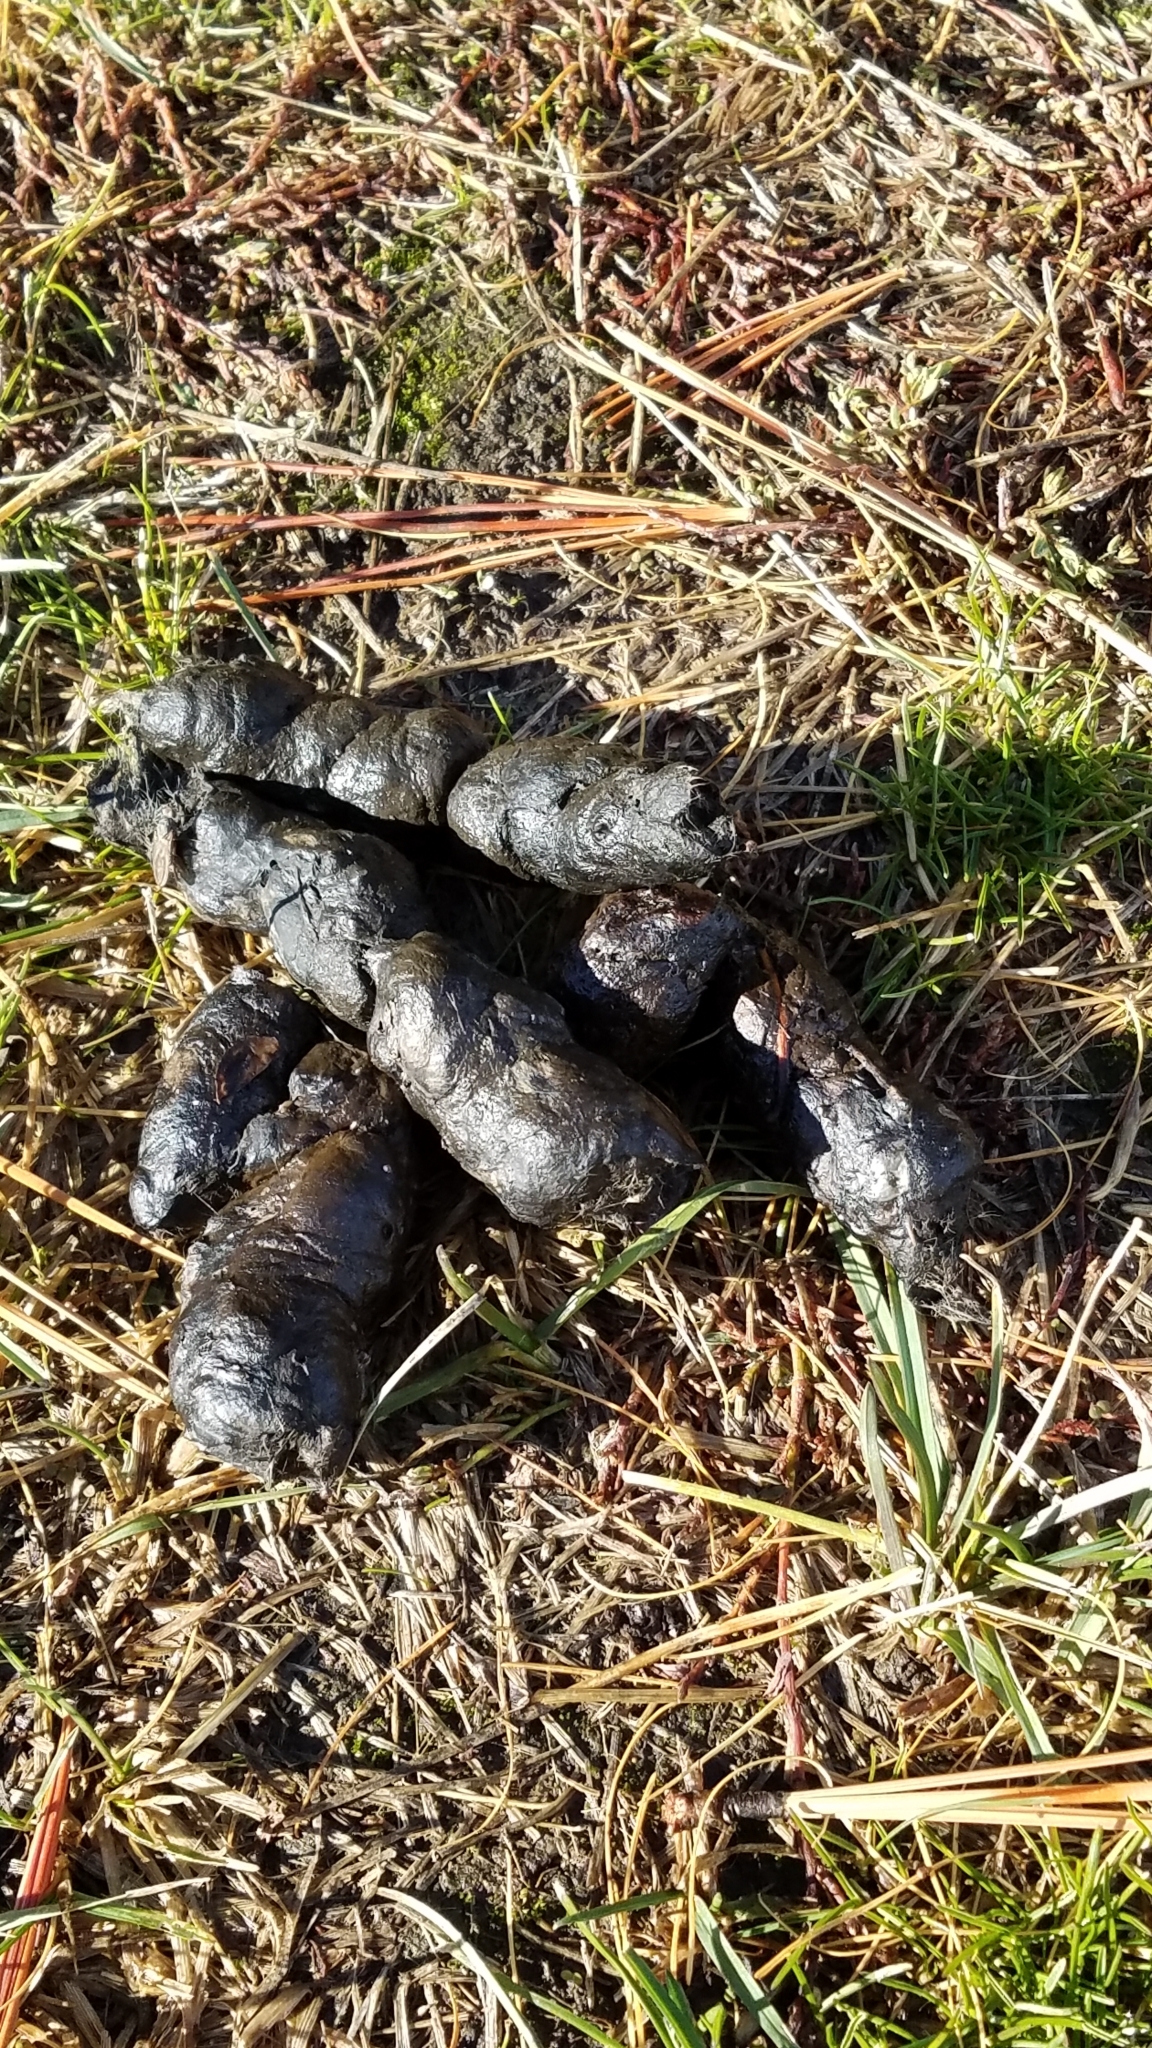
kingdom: Animalia
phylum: Chordata
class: Mammalia
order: Carnivora
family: Canidae
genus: Canis
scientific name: Canis latrans
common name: Coyote
